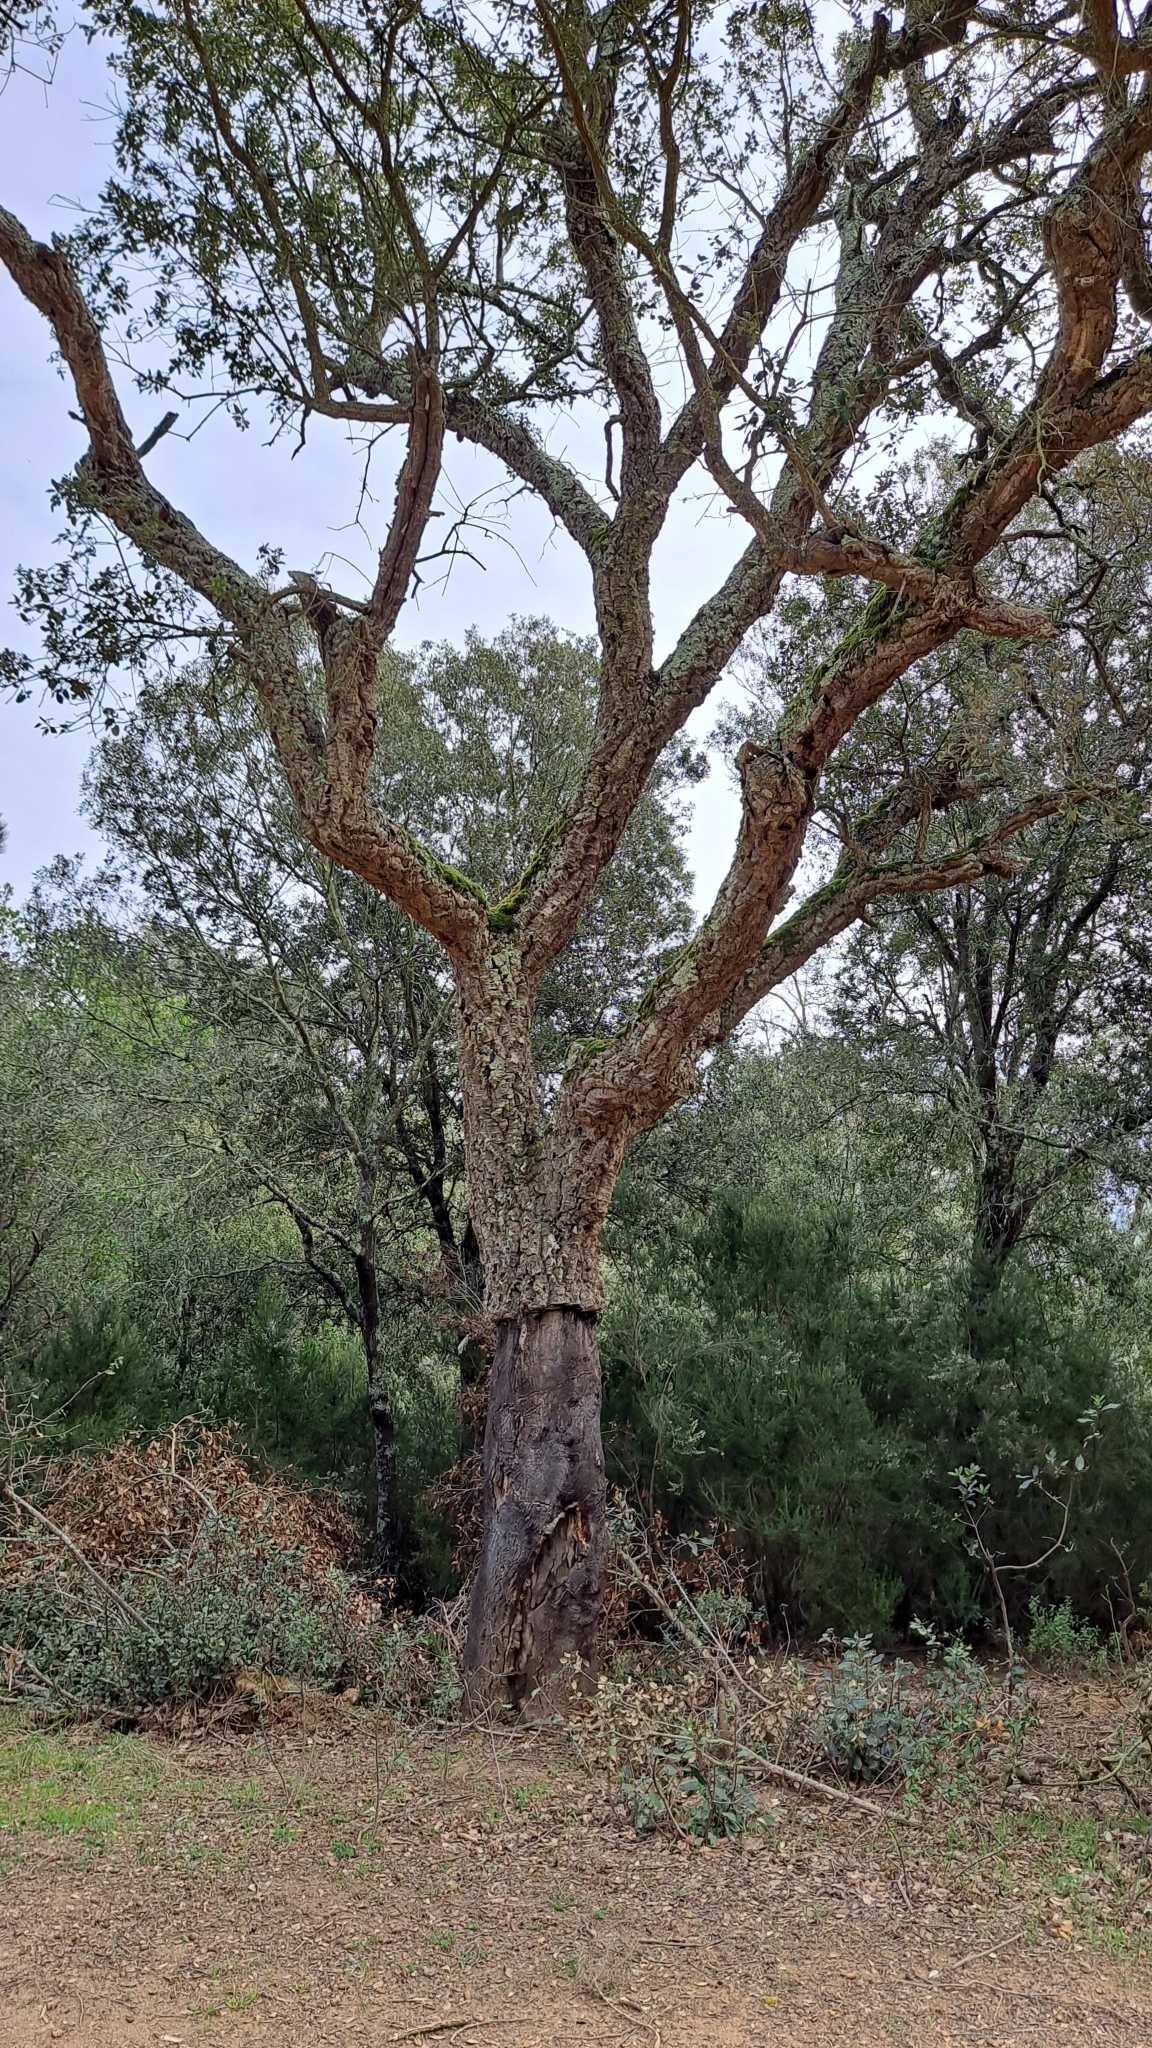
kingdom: Plantae
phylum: Tracheophyta
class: Magnoliopsida
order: Fagales
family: Fagaceae
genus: Quercus
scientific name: Quercus suber
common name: Cork oak
